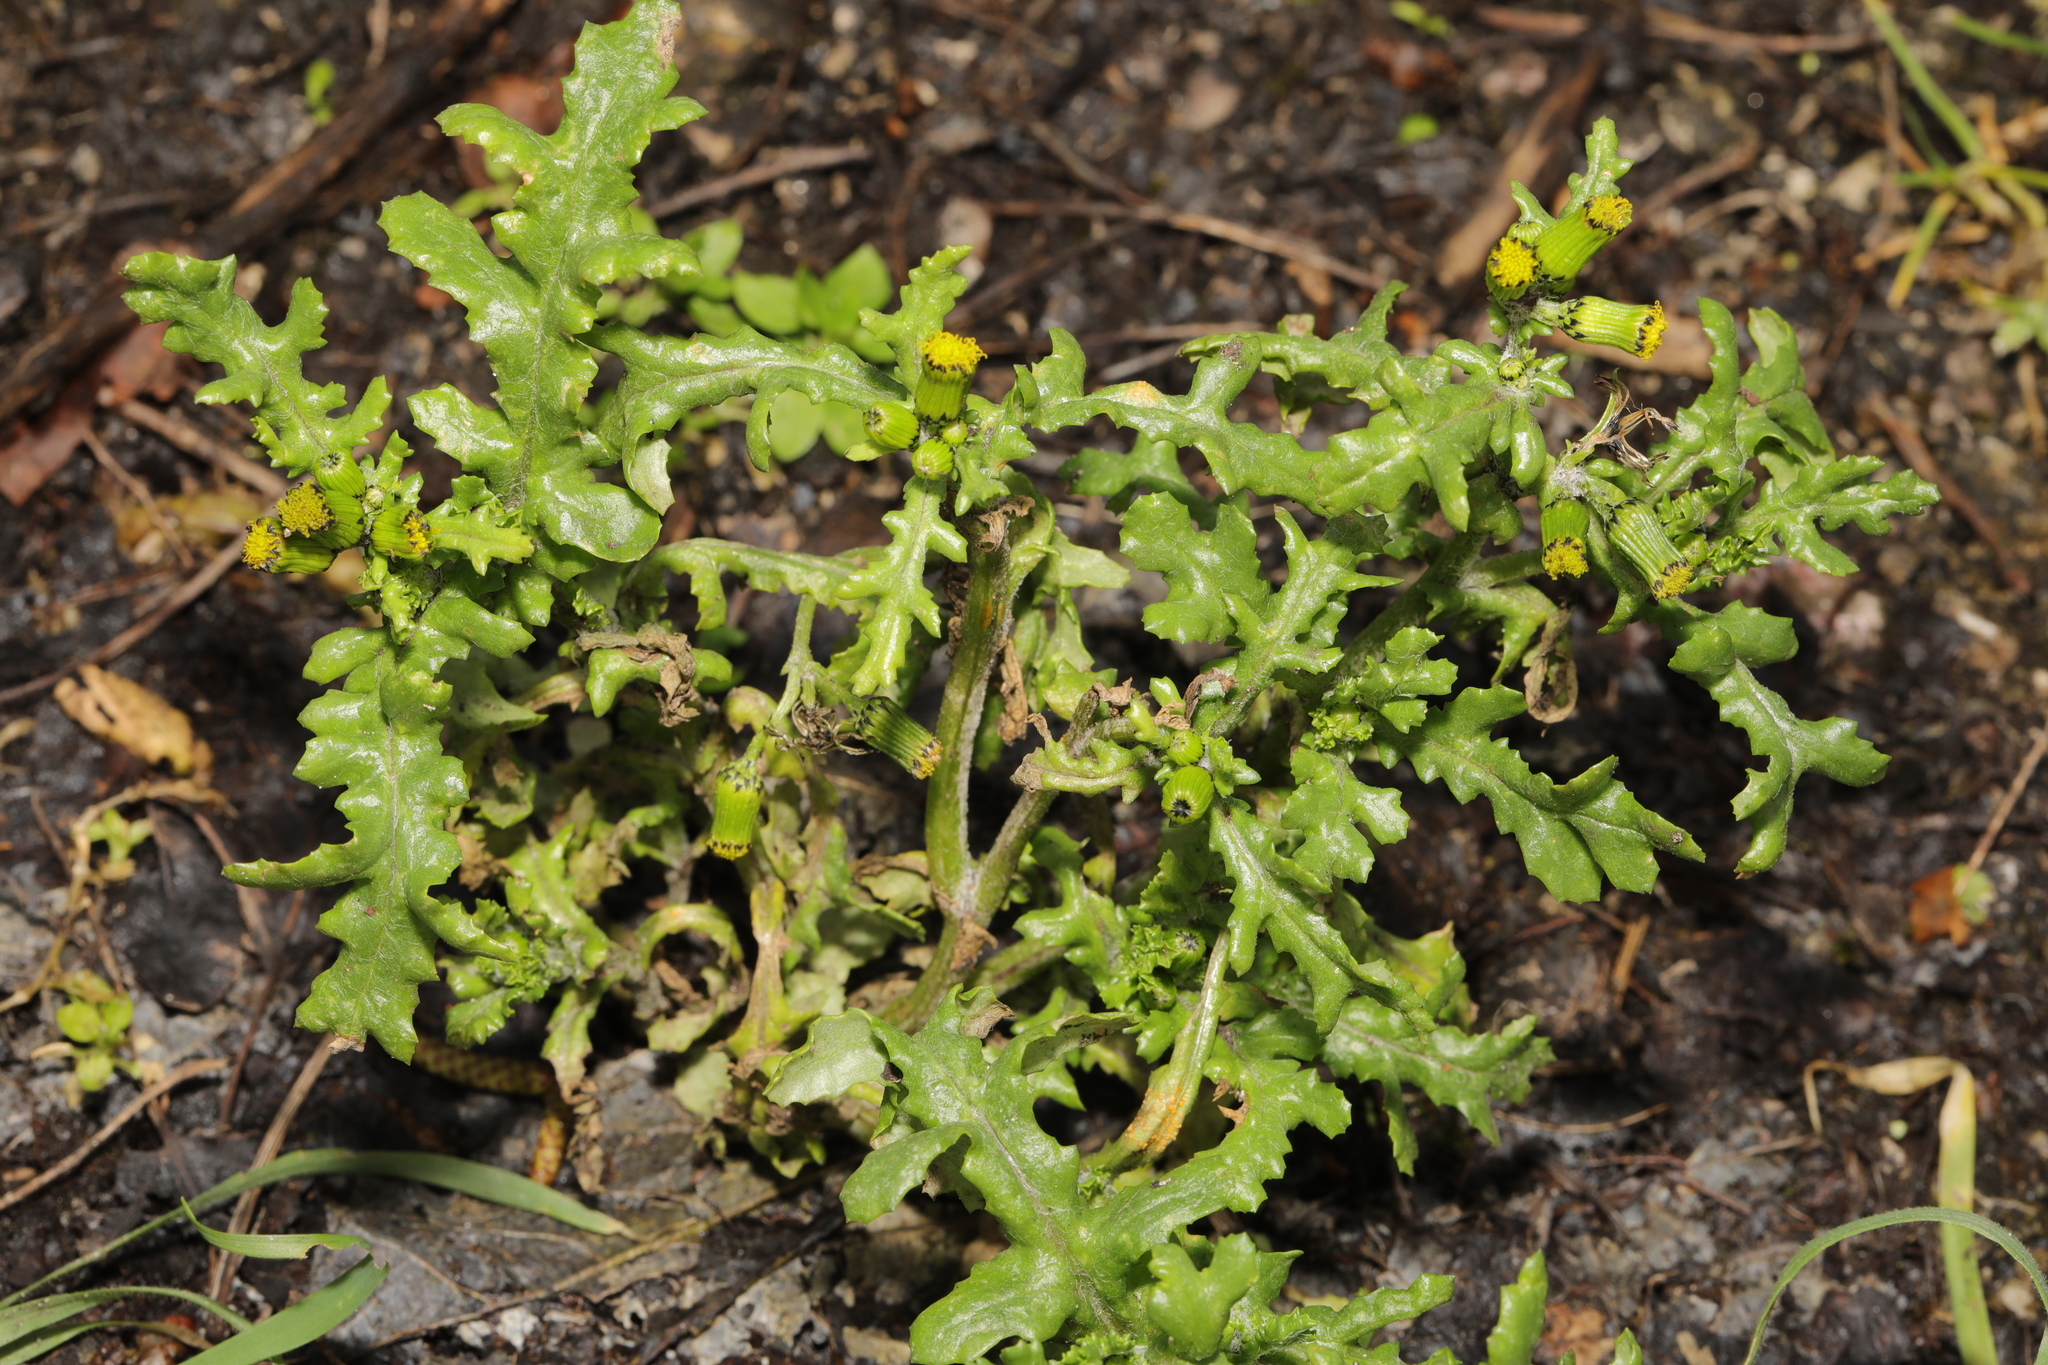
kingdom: Plantae
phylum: Tracheophyta
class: Magnoliopsida
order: Asterales
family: Asteraceae
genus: Senecio
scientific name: Senecio vulgaris
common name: Old-man-in-the-spring
